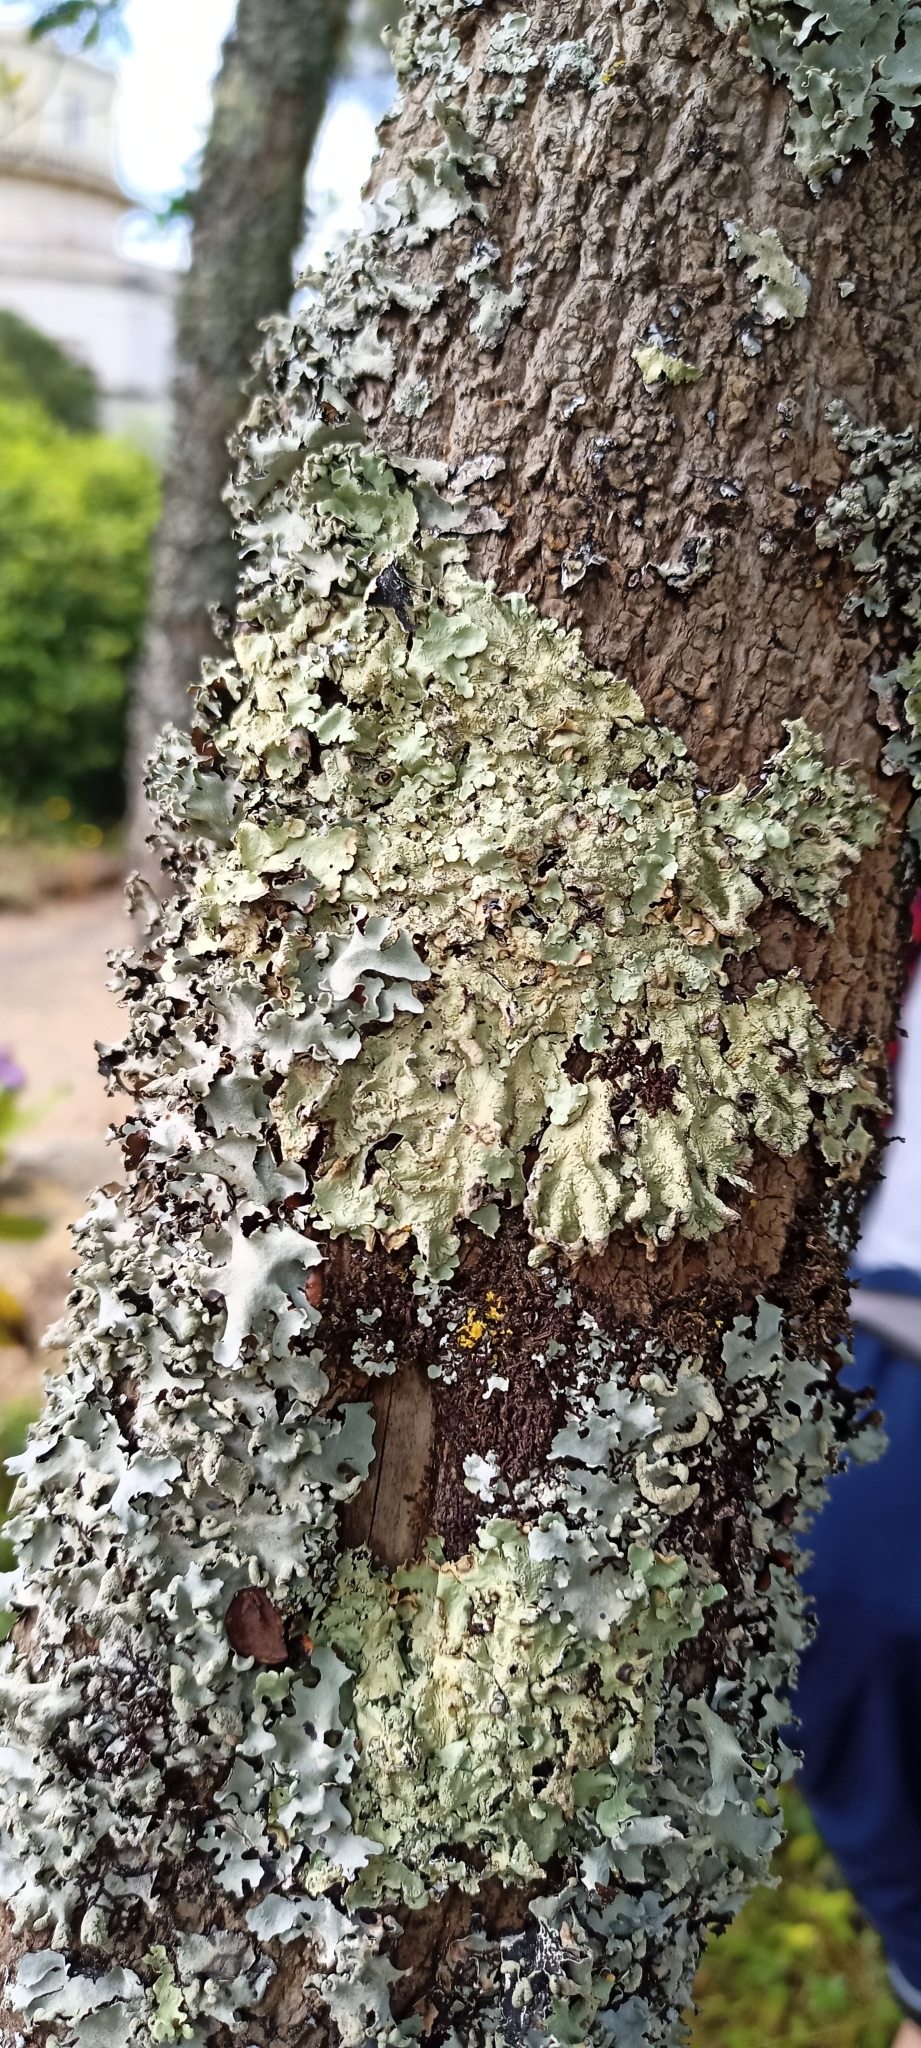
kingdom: Fungi
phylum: Ascomycota
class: Lecanoromycetes
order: Lecanorales
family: Parmeliaceae
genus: Flavoparmelia
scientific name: Flavoparmelia caperata
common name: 40-mile per hour lichen
